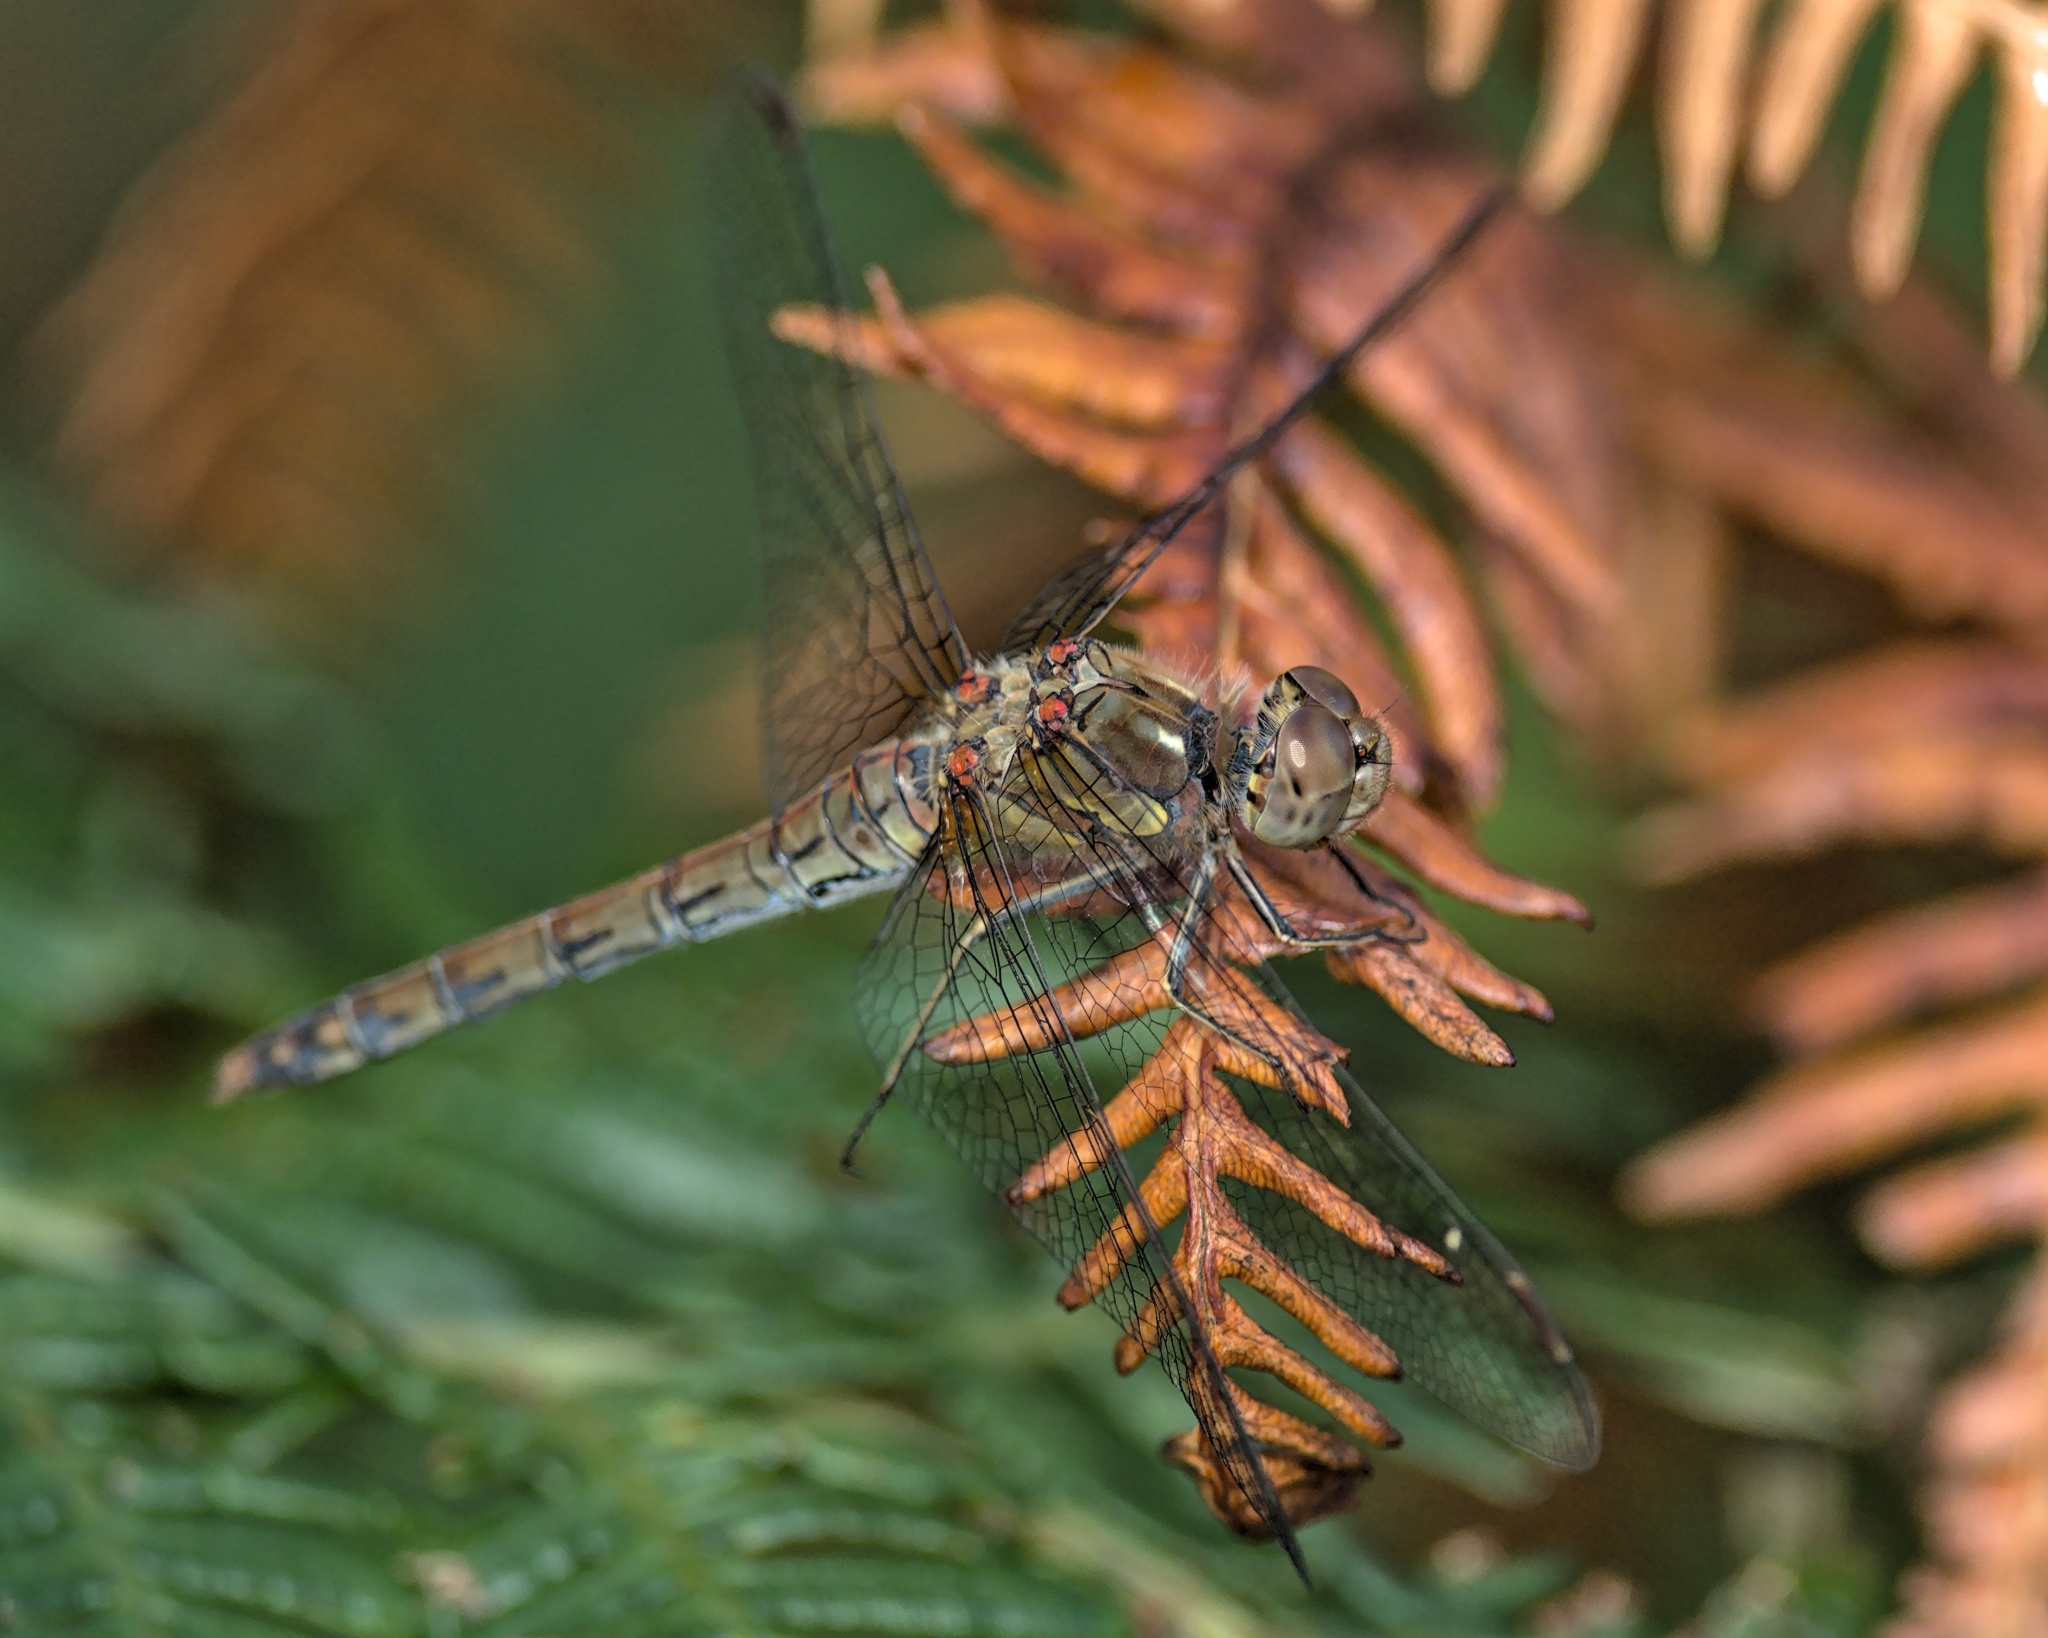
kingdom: Animalia
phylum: Arthropoda
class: Insecta
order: Odonata
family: Libellulidae
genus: Sympetrum
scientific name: Sympetrum striolatum
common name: Common darter
